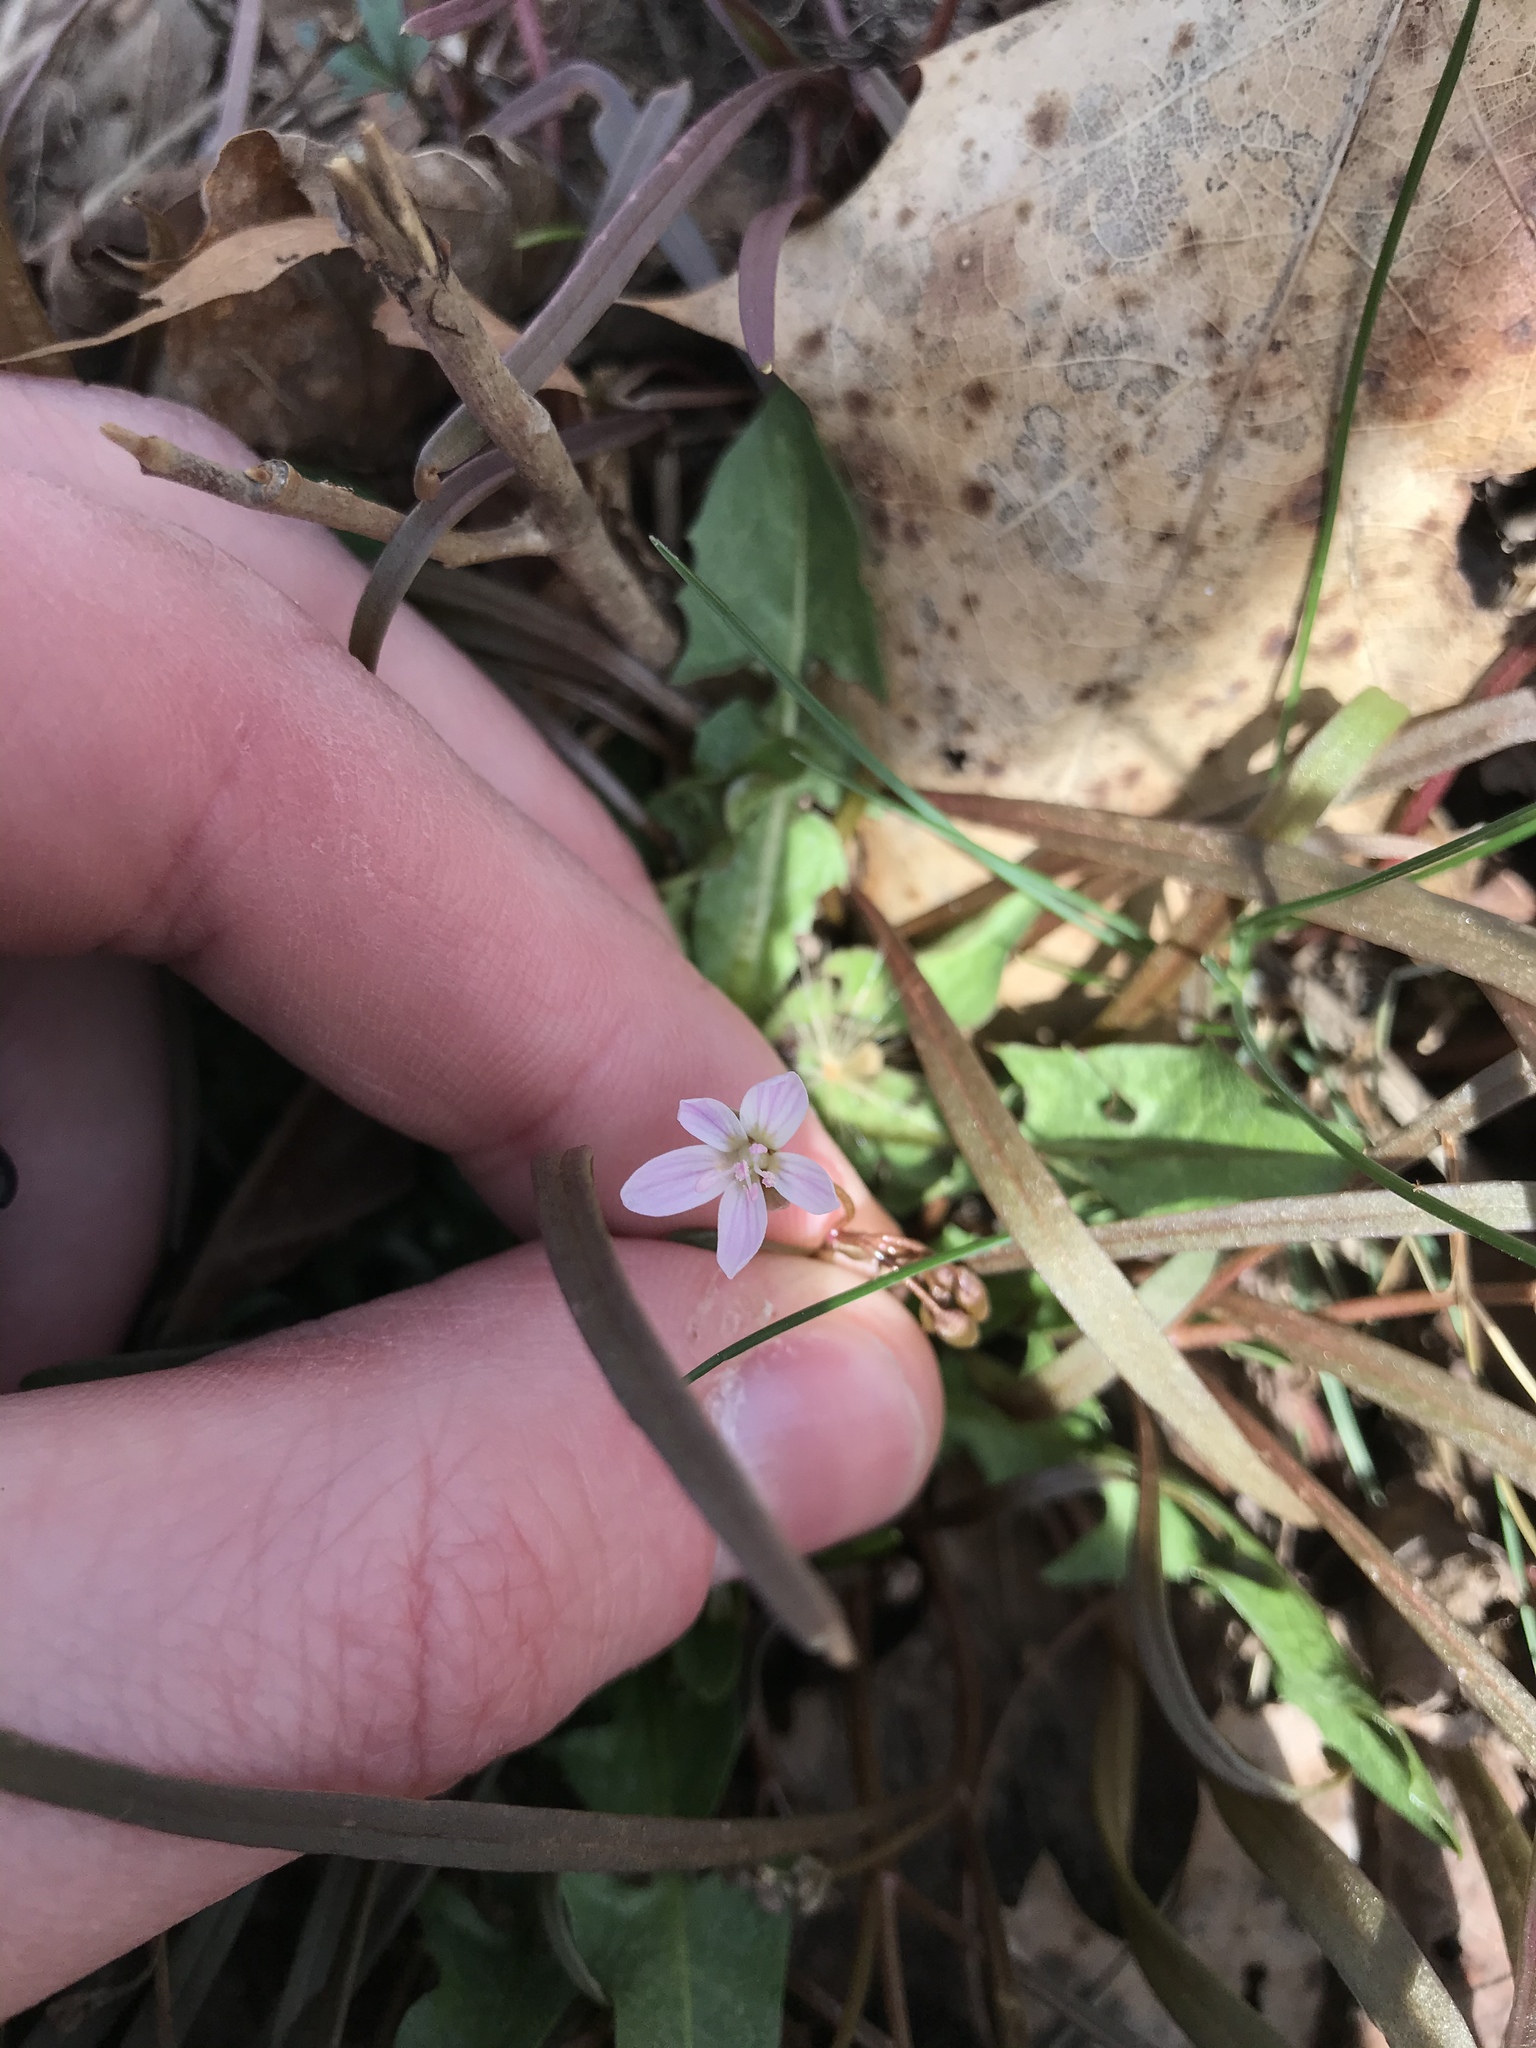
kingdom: Plantae
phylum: Tracheophyta
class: Magnoliopsida
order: Caryophyllales
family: Montiaceae
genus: Claytonia
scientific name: Claytonia virginica
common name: Virginia springbeauty
